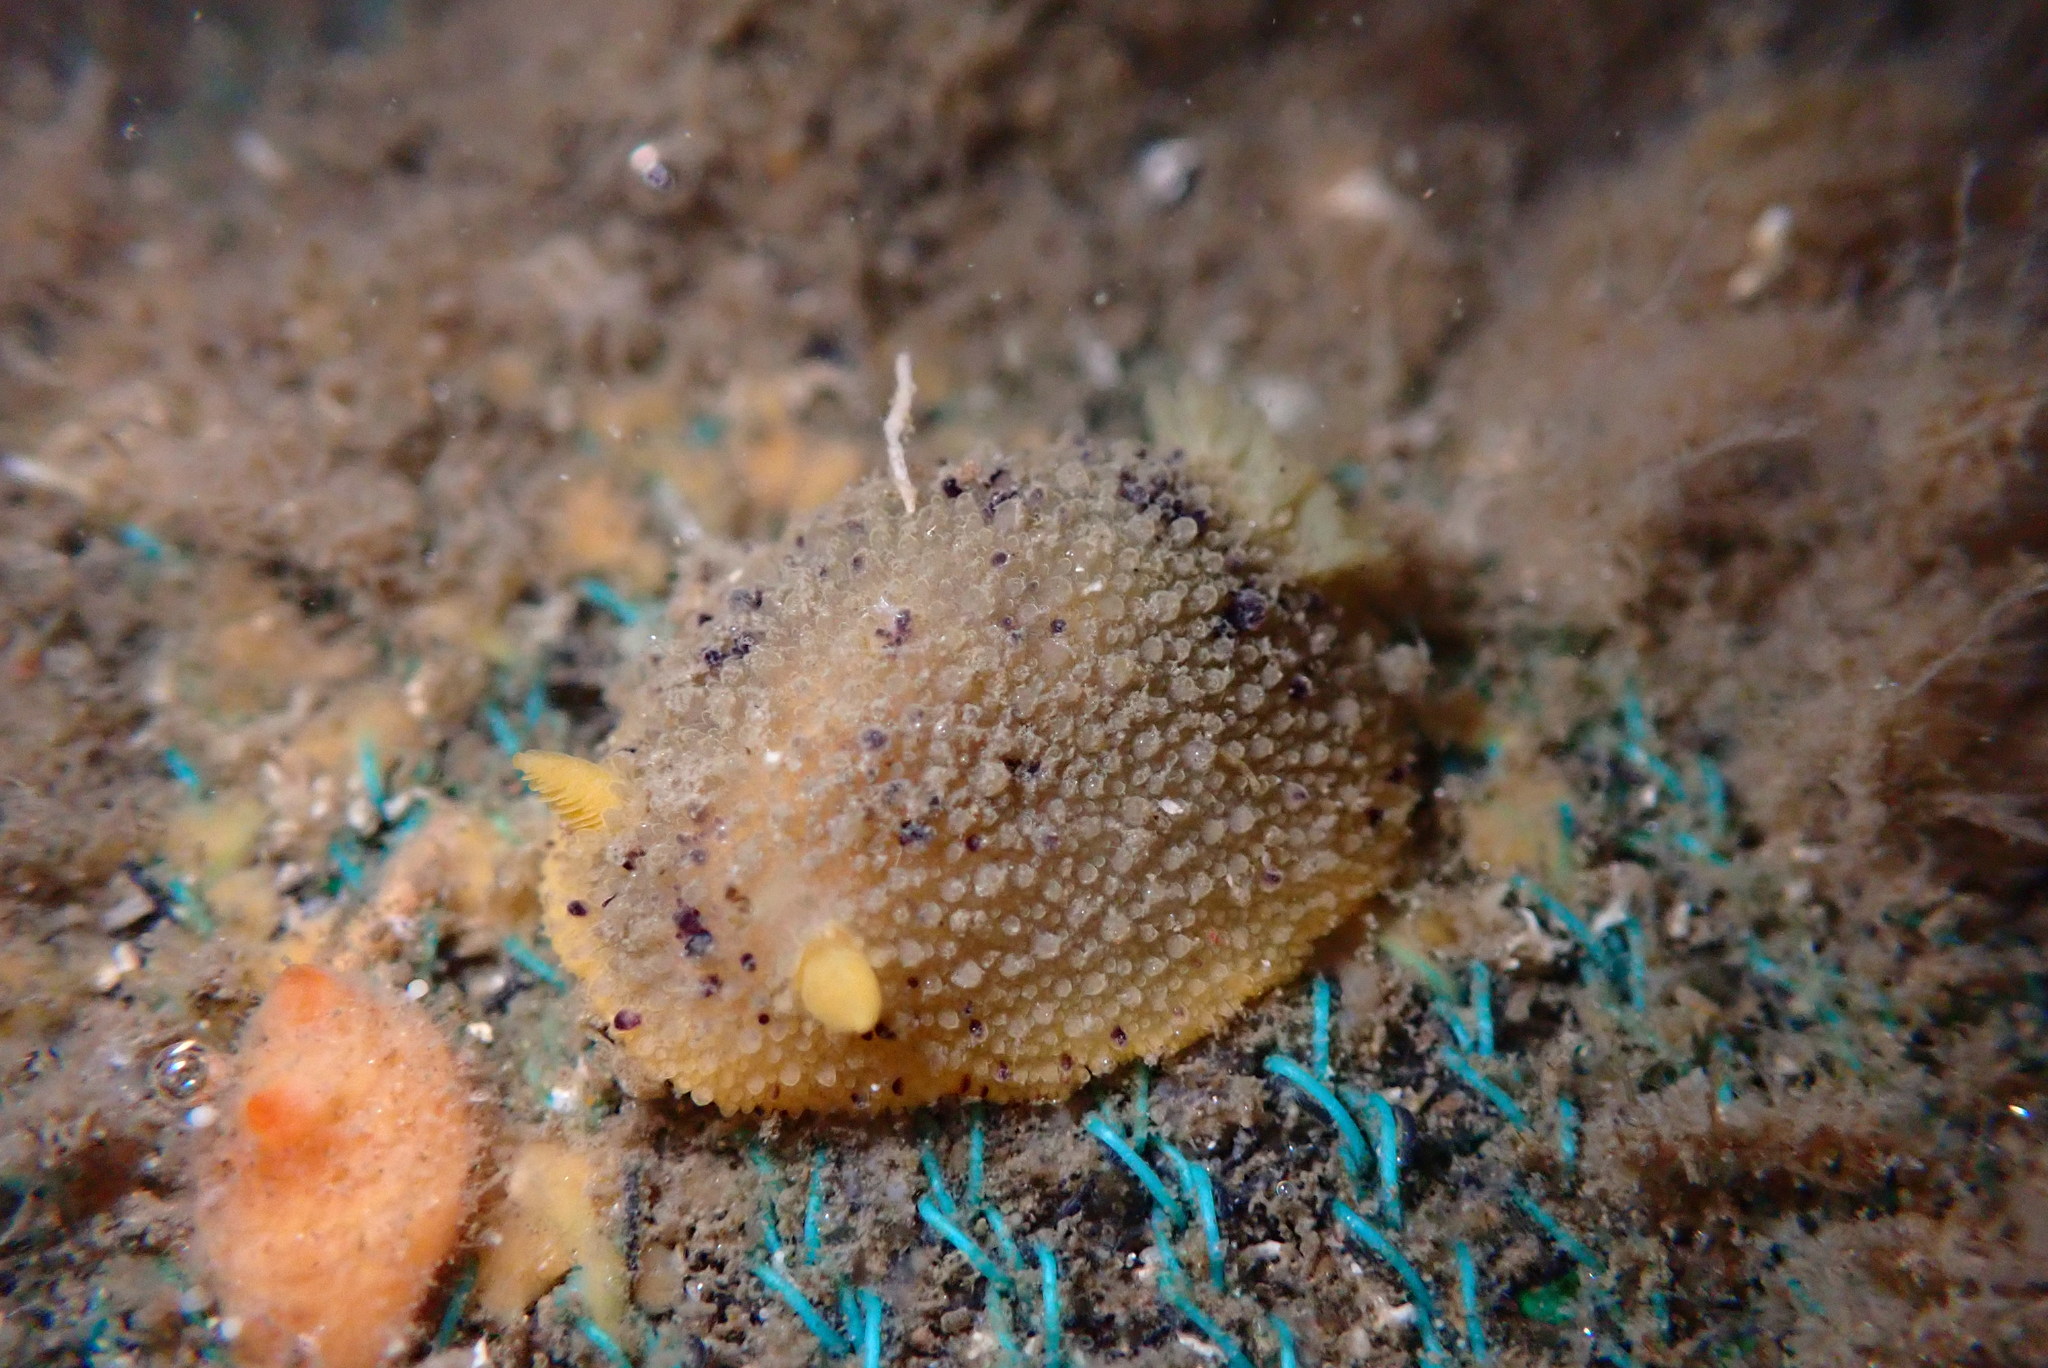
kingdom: Animalia
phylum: Mollusca
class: Gastropoda
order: Nudibranchia
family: Dorididae
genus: Doris
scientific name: Doris montereyensis
